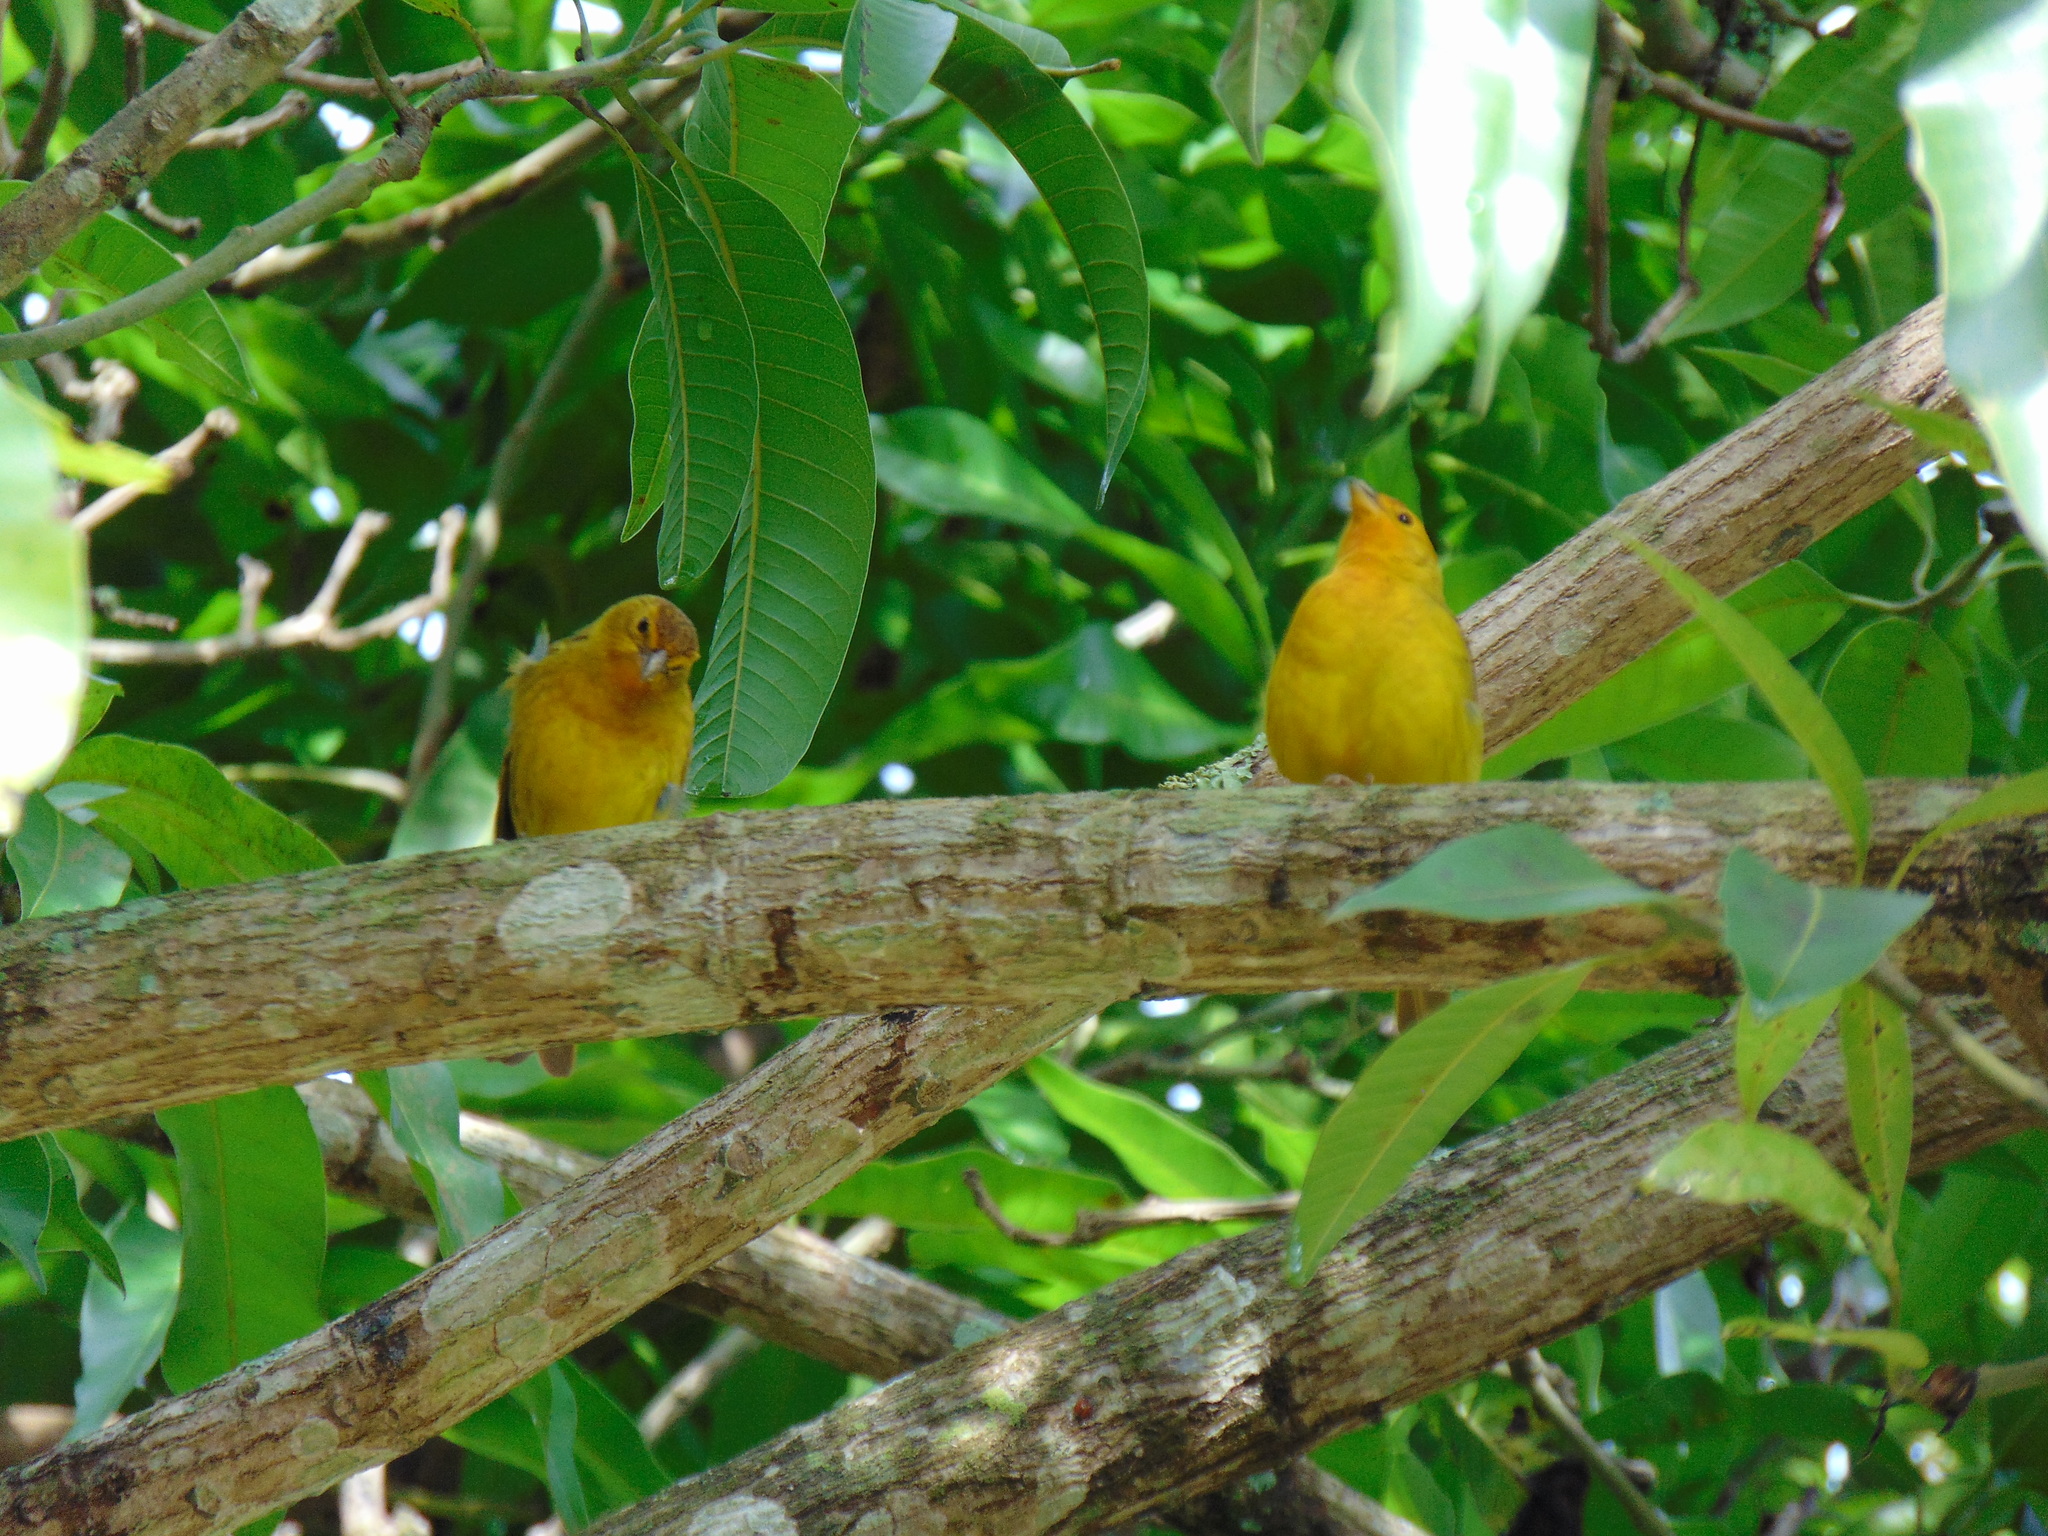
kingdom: Animalia
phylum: Chordata
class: Aves
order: Passeriformes
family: Thraupidae
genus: Sicalis
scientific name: Sicalis flaveola
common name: Saffron finch
